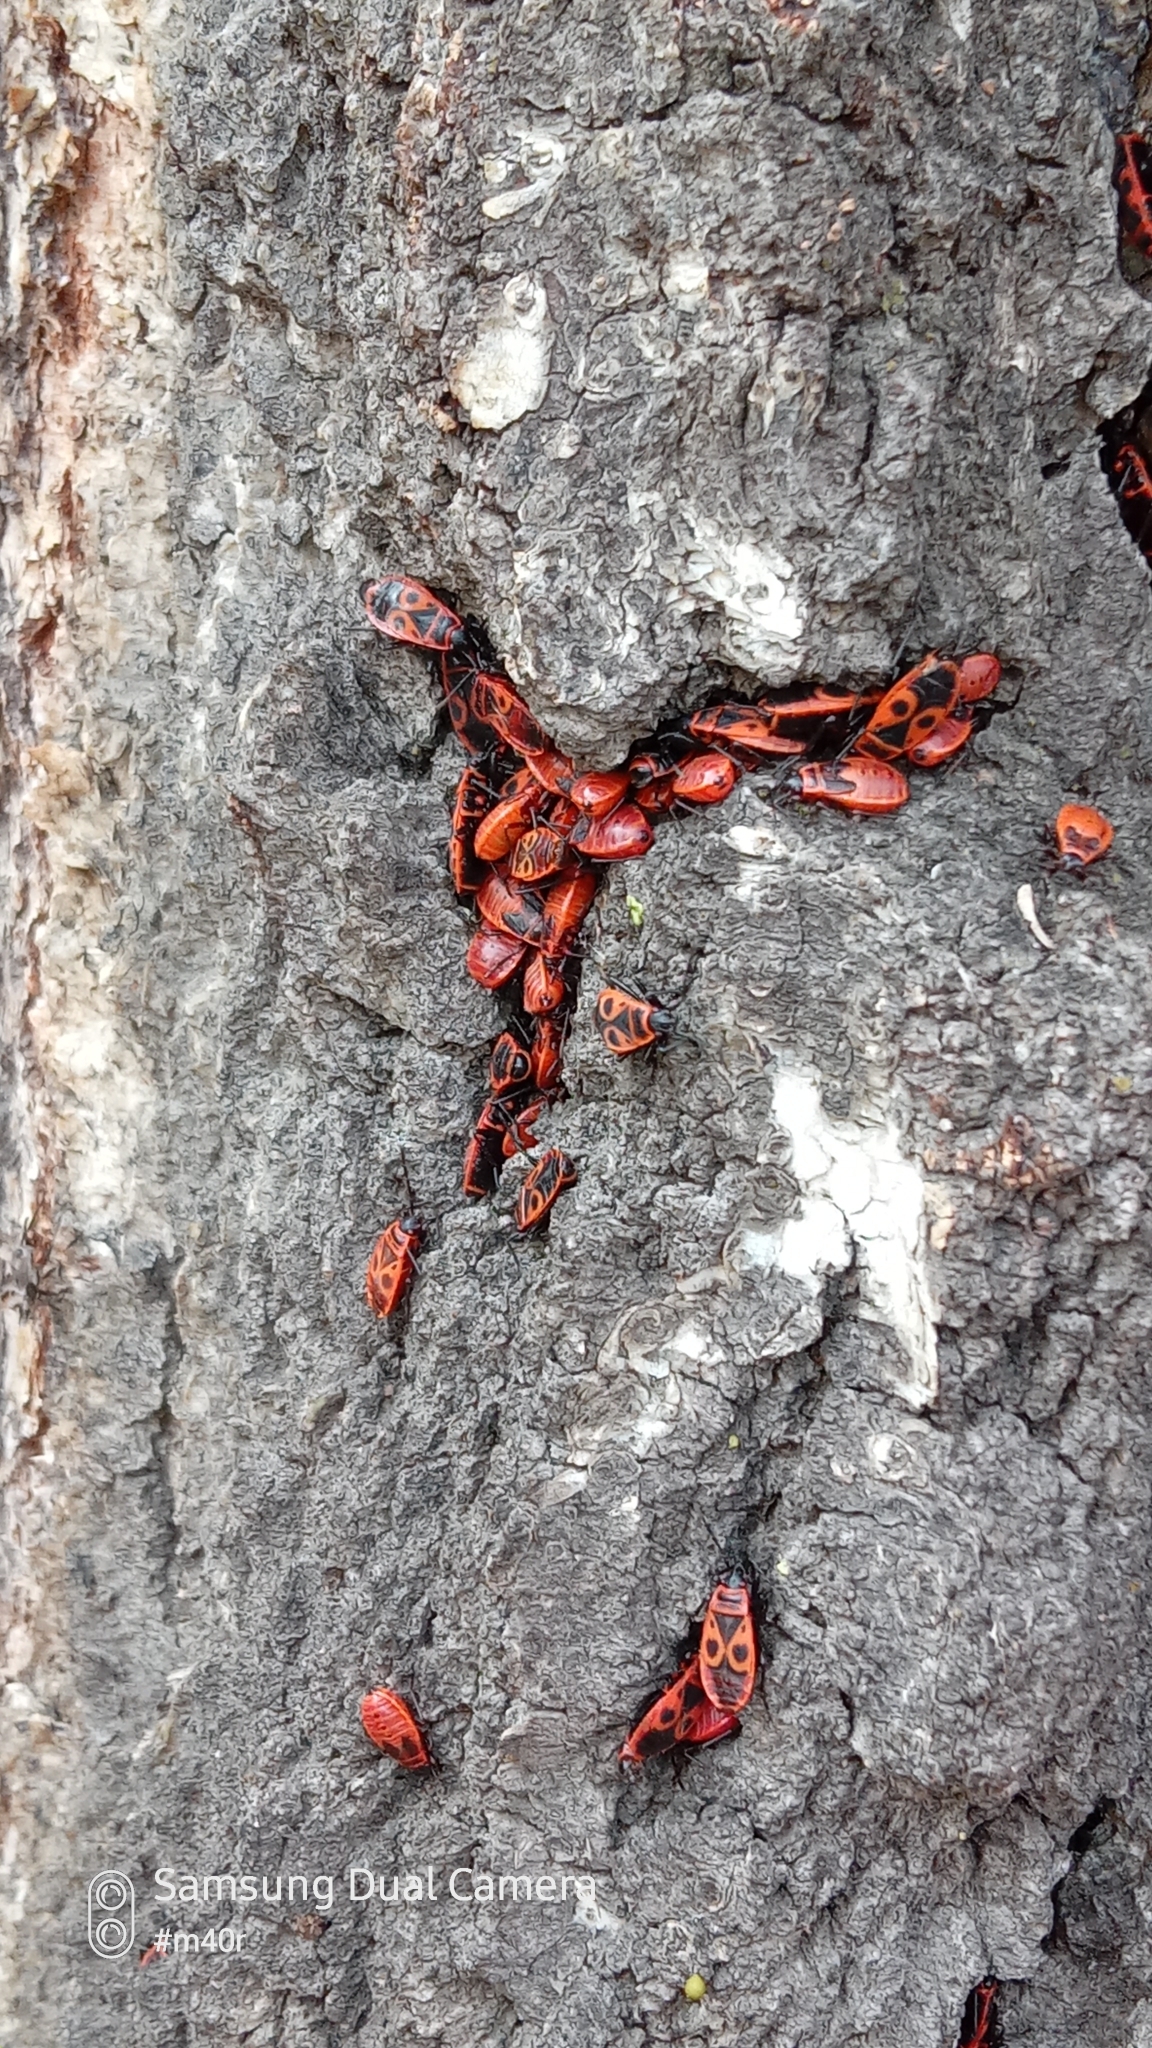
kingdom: Animalia
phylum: Arthropoda
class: Insecta
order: Hemiptera
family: Pyrrhocoridae
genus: Pyrrhocoris
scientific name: Pyrrhocoris apterus
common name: Firebug
